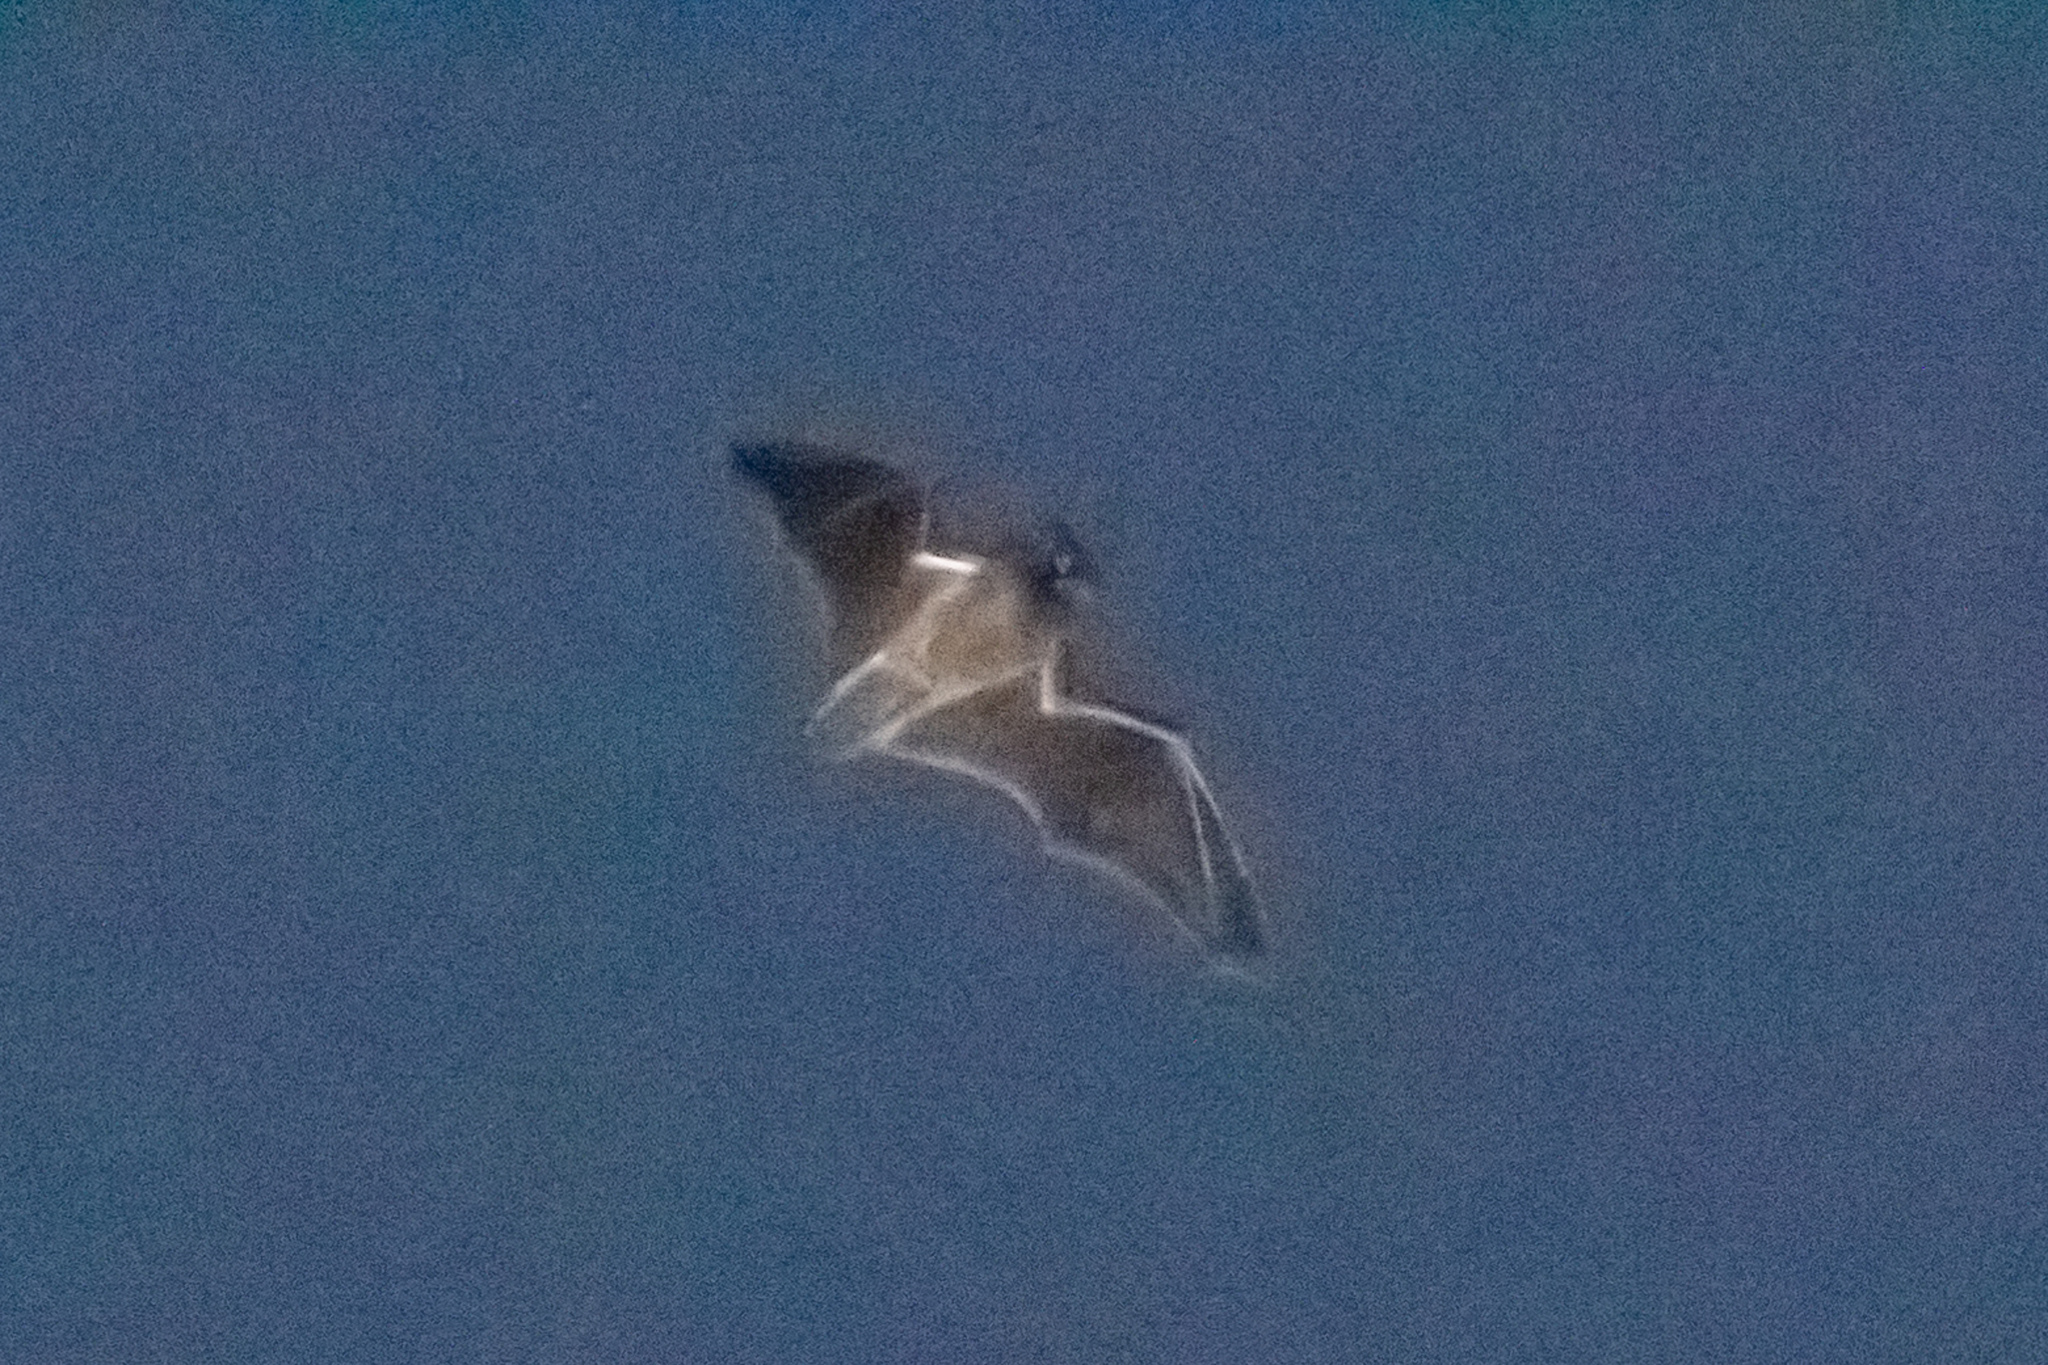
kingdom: Animalia
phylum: Chordata
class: Mammalia
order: Chiroptera
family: Vespertilionidae
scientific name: Vespertilionidae
